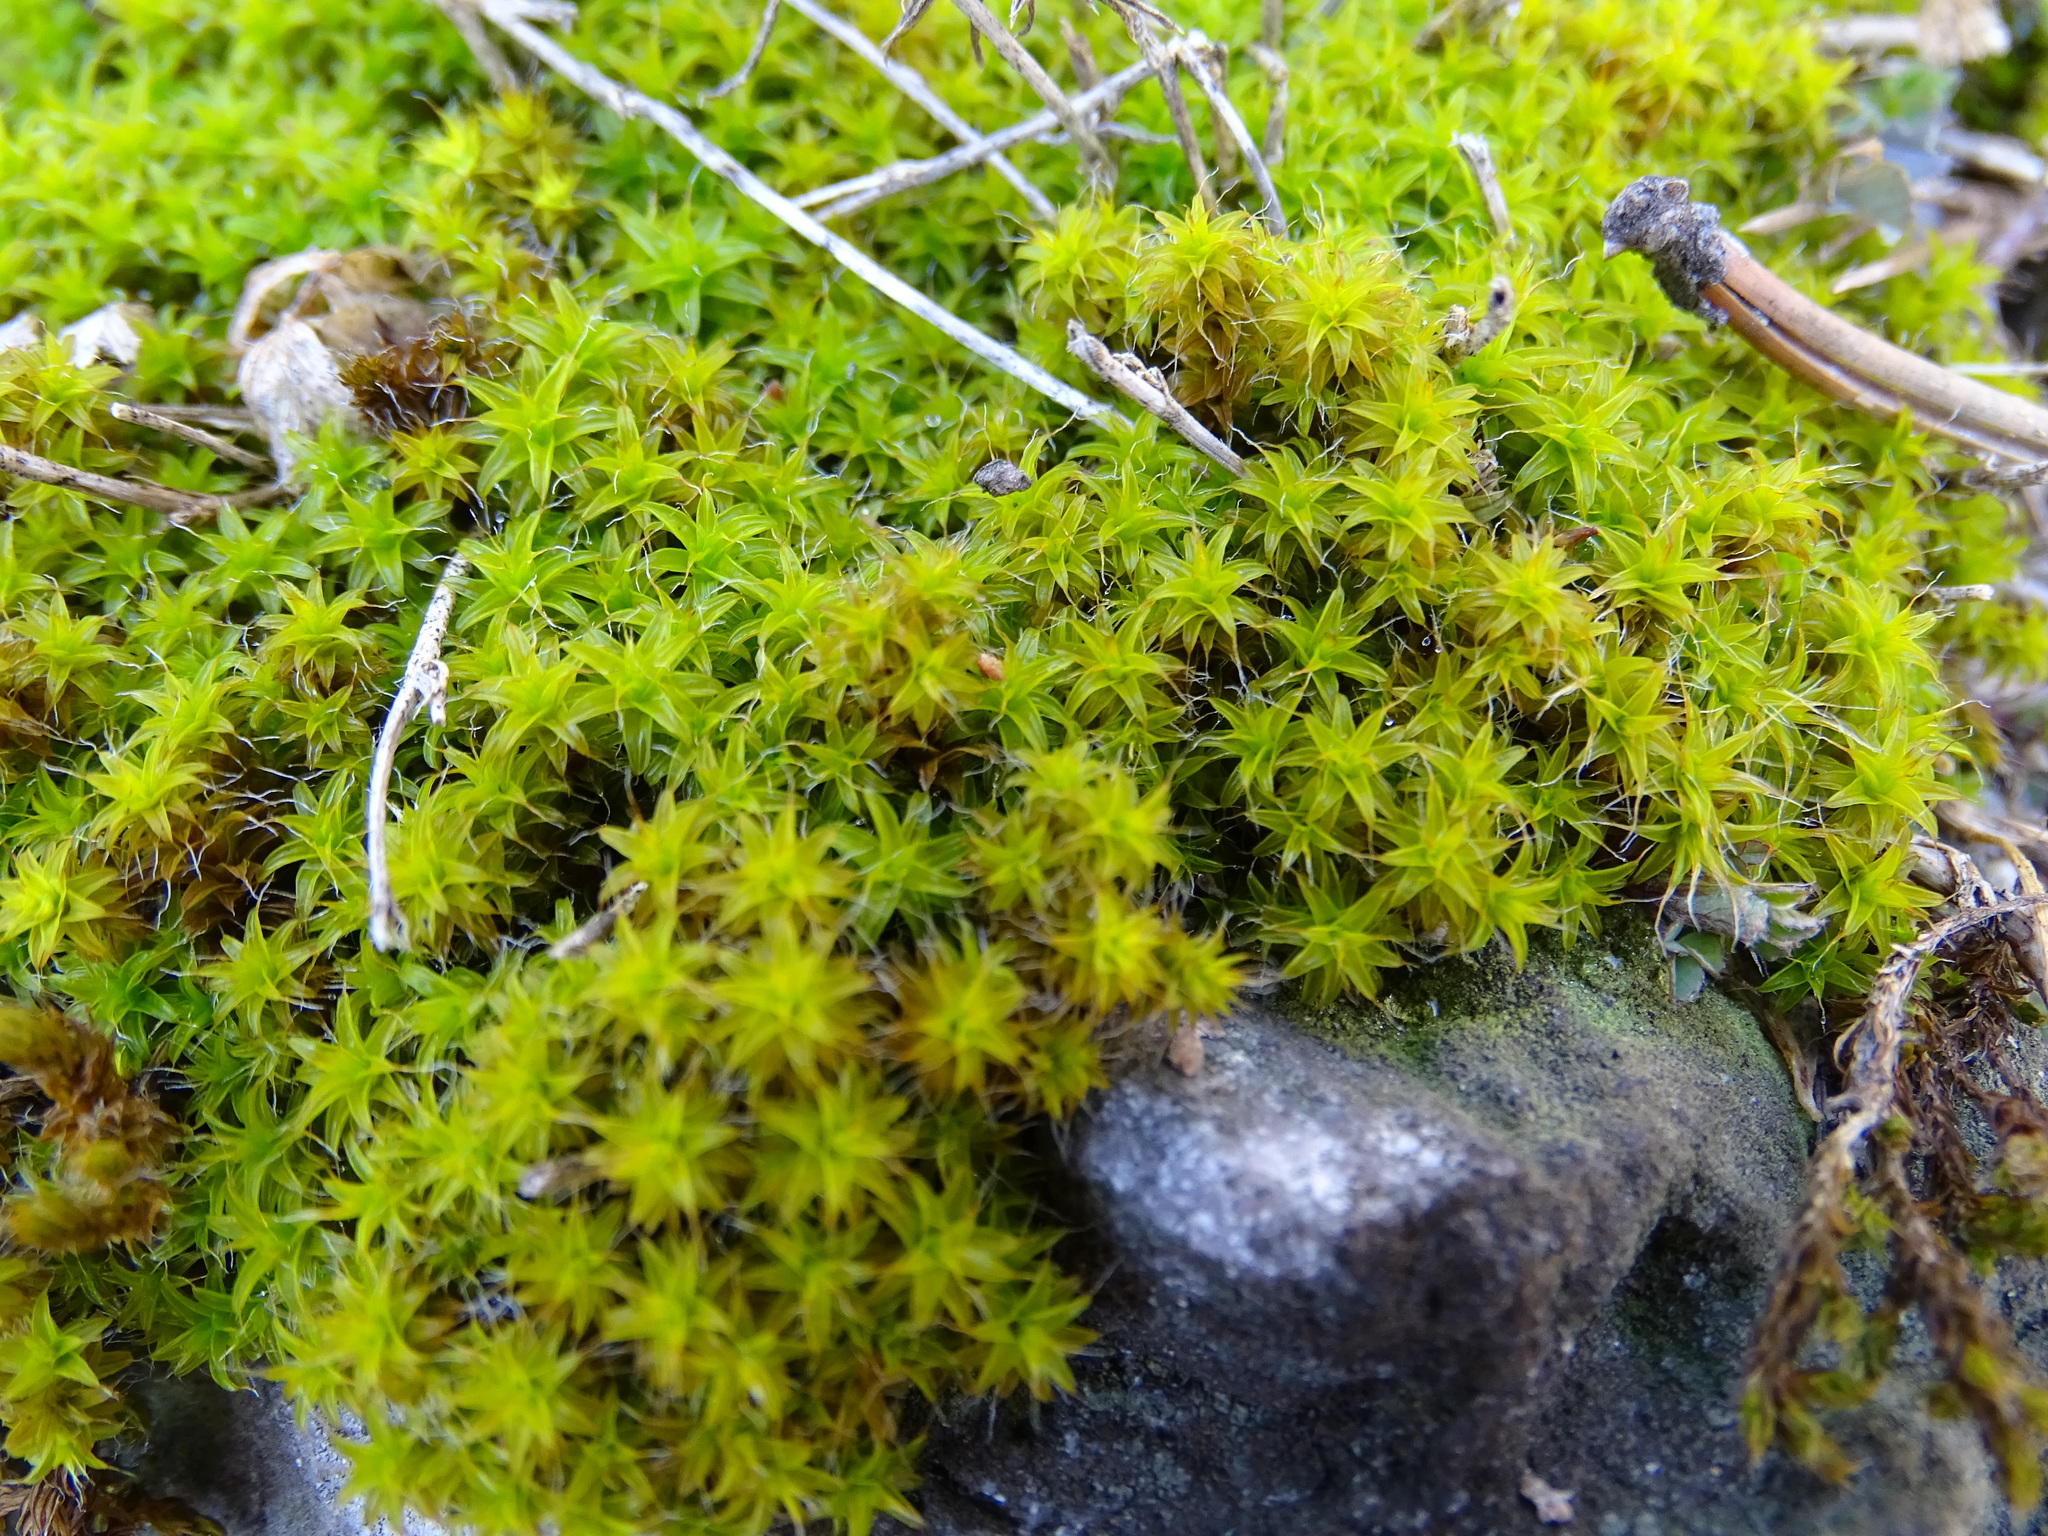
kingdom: Plantae
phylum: Bryophyta
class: Bryopsida
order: Pottiales
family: Pottiaceae
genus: Syntrichia
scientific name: Syntrichia ruralis
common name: Sidewalk screw moss
